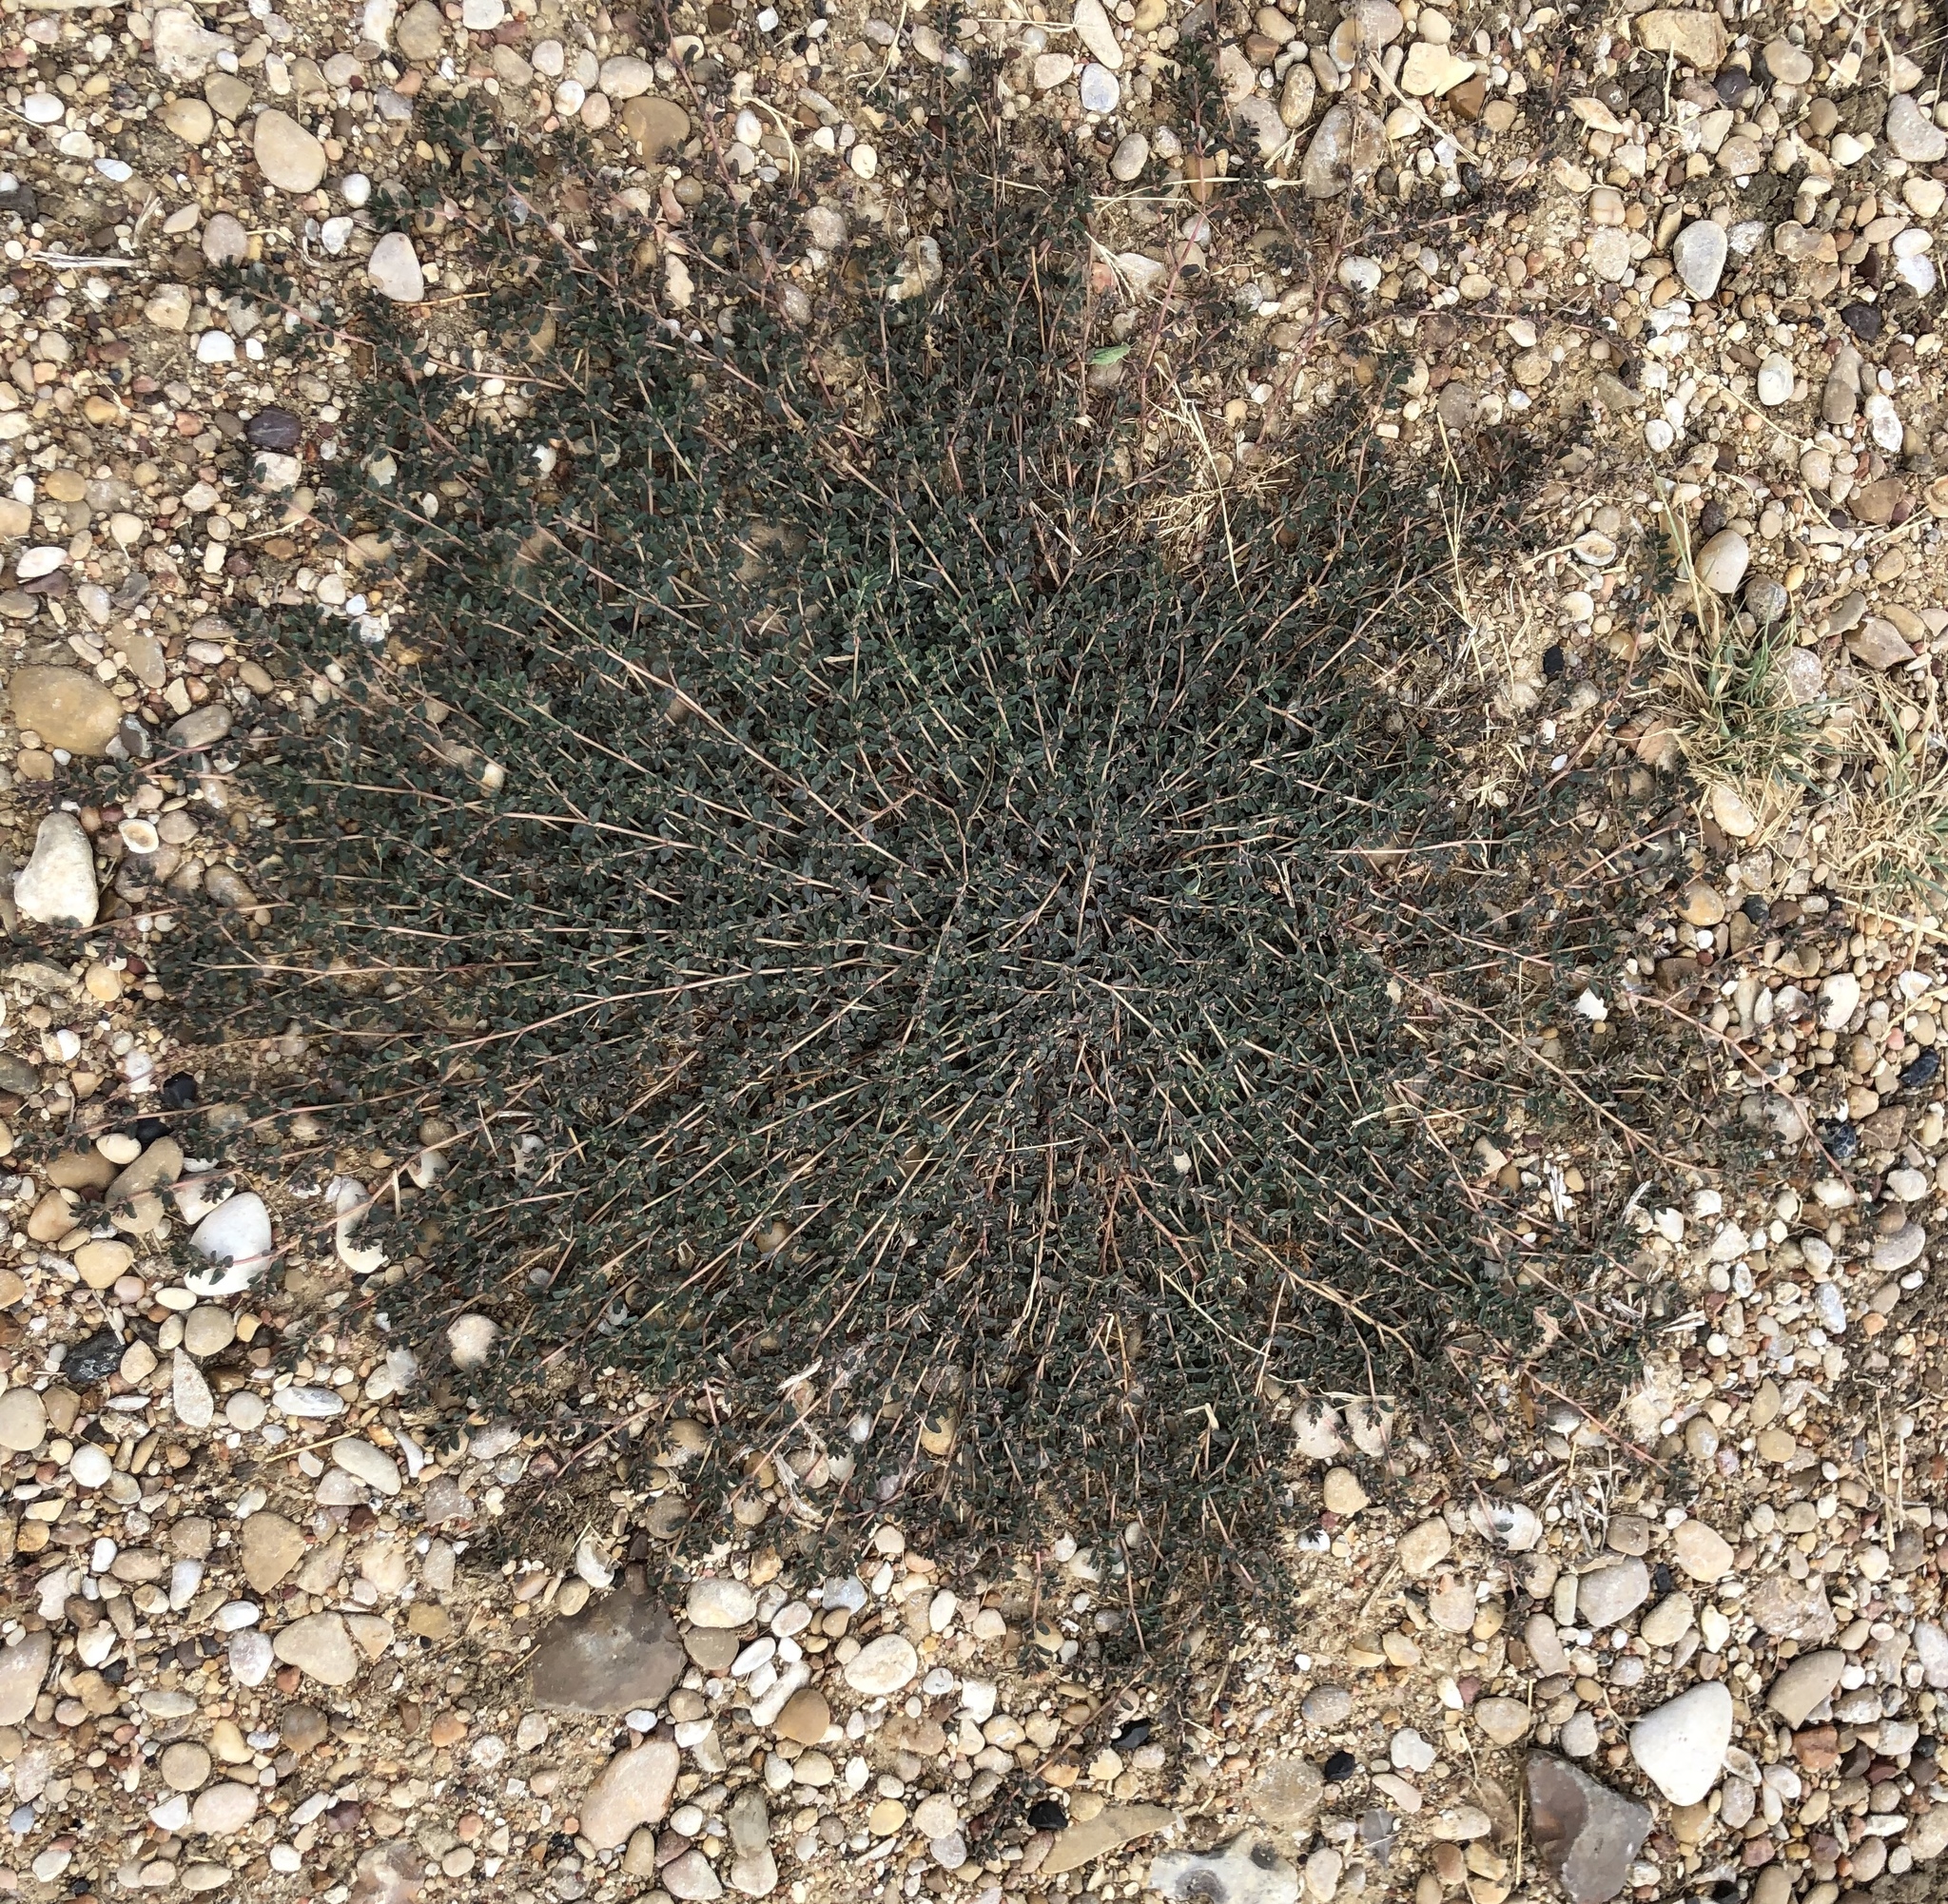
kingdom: Plantae
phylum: Tracheophyta
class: Magnoliopsida
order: Malpighiales
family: Euphorbiaceae
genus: Euphorbia
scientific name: Euphorbia maculata
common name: Spotted spurge
